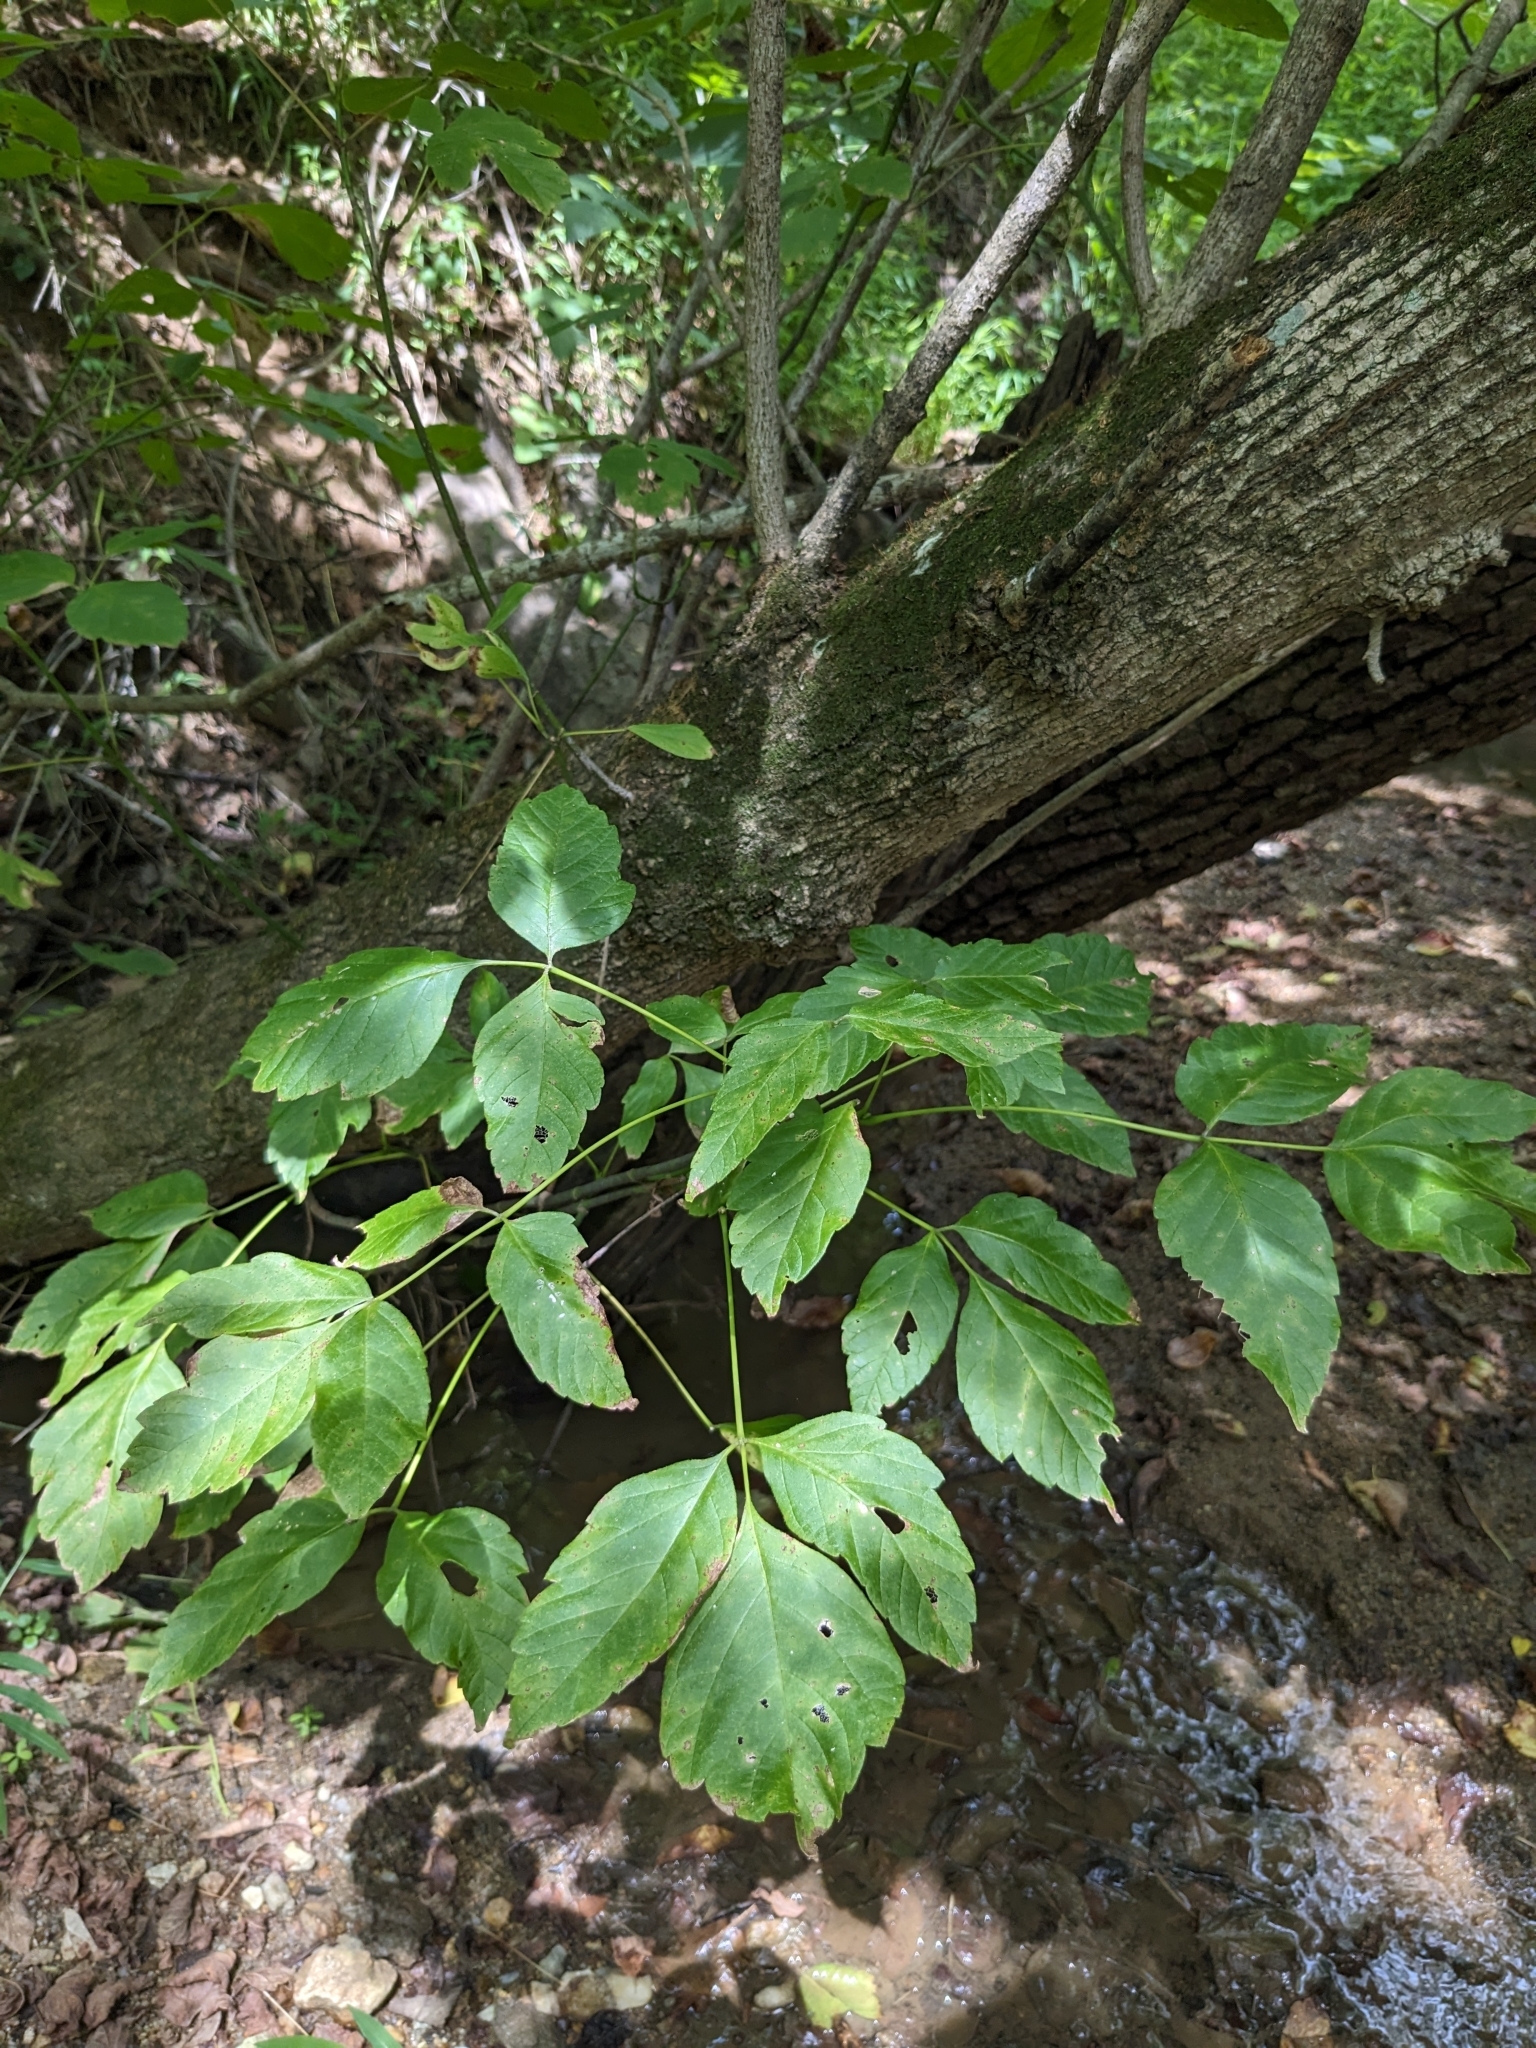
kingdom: Plantae
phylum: Tracheophyta
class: Magnoliopsida
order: Sapindales
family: Sapindaceae
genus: Acer
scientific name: Acer negundo
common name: Ashleaf maple
